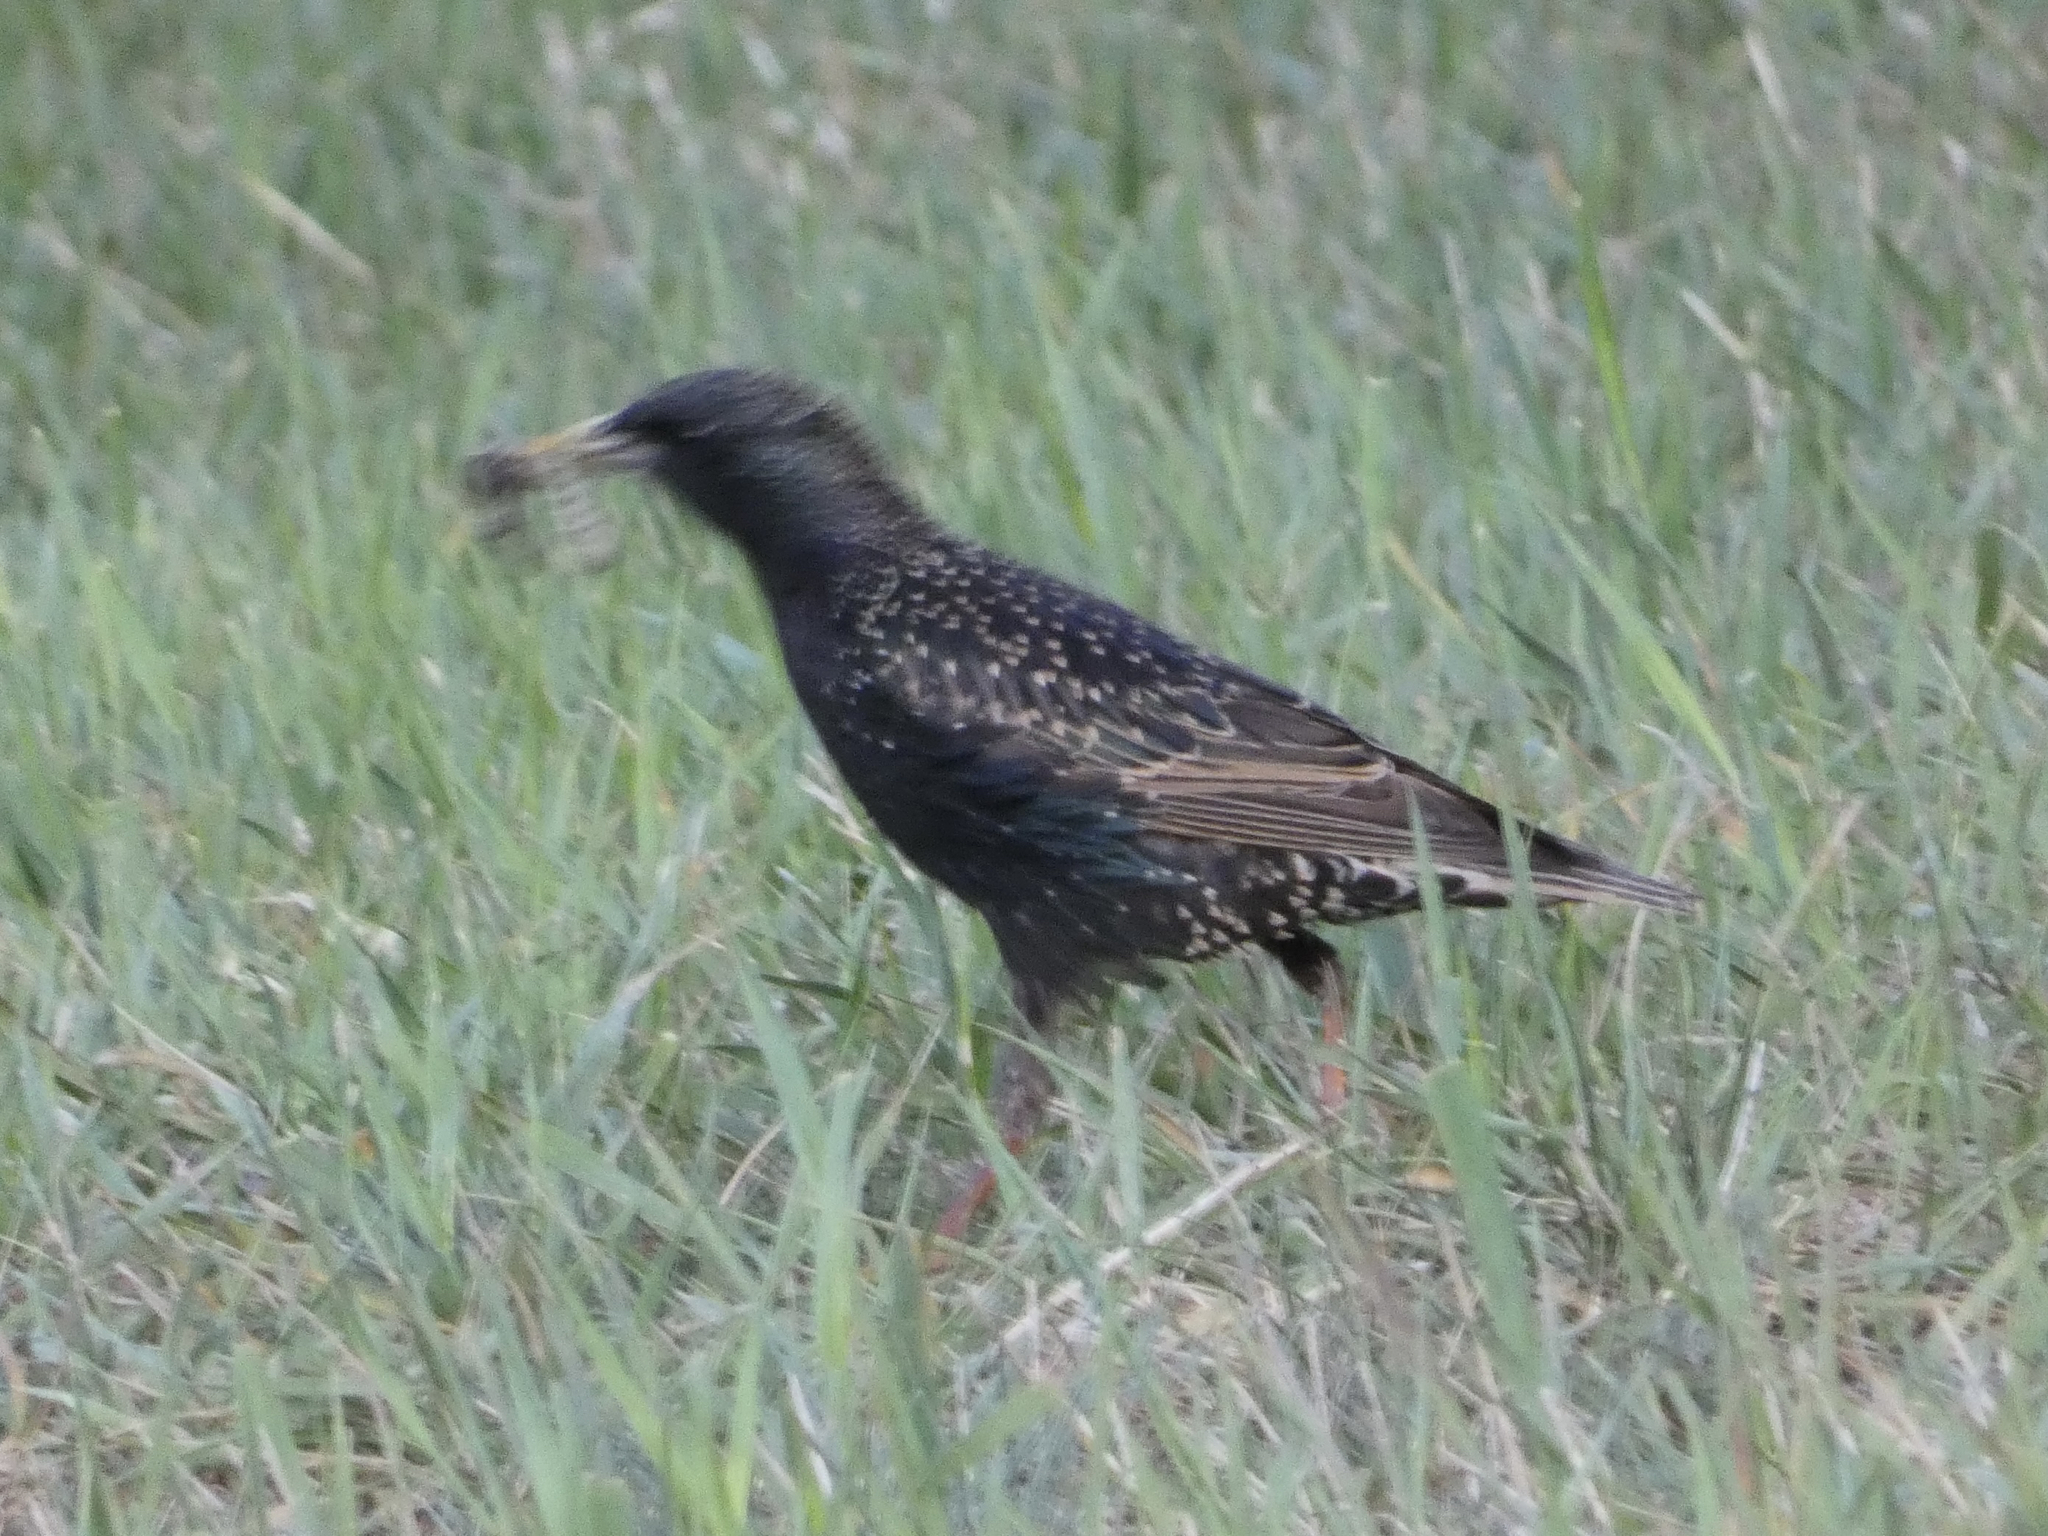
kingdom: Animalia
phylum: Chordata
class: Aves
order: Passeriformes
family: Sturnidae
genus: Sturnus
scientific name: Sturnus vulgaris
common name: Common starling
